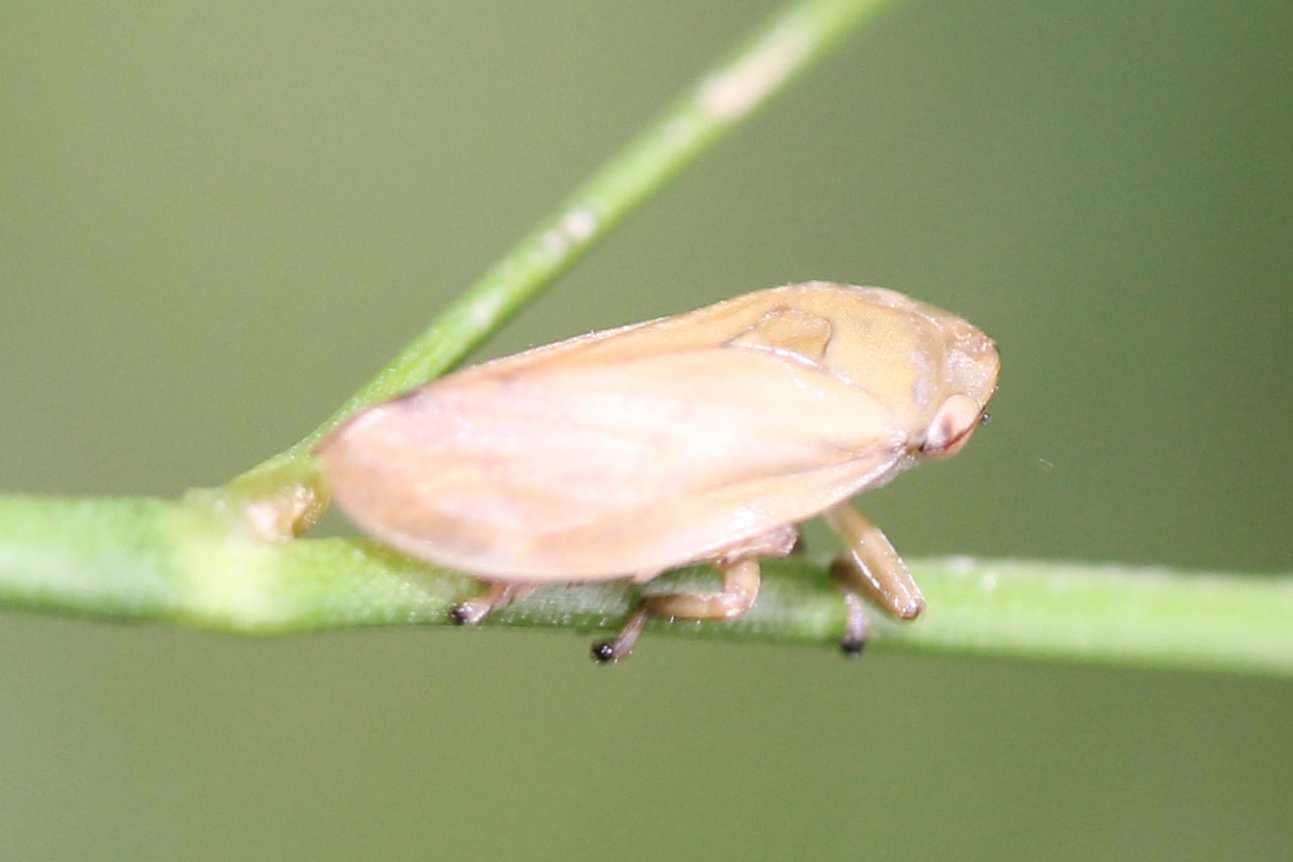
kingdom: Animalia
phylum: Arthropoda
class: Insecta
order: Hemiptera
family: Aphrophoridae
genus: Philaenus
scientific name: Philaenus spumarius
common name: Meadow spittlebug
